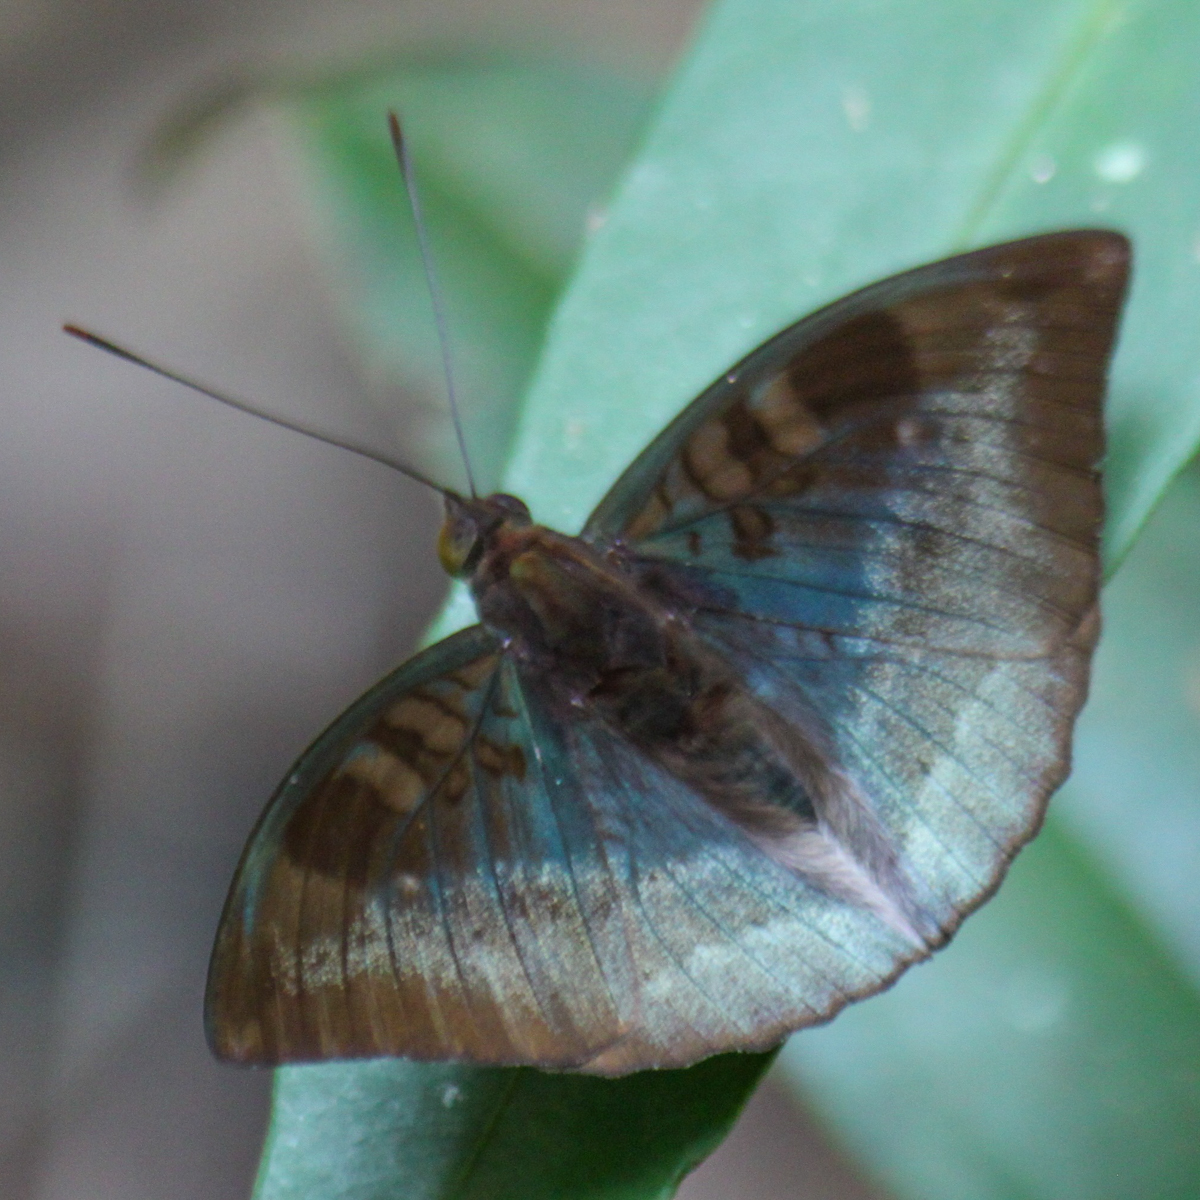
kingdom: Animalia
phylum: Arthropoda
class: Insecta
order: Lepidoptera
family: Nymphalidae
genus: Euthalia
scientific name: Euthalia monina
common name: Powdered baron
